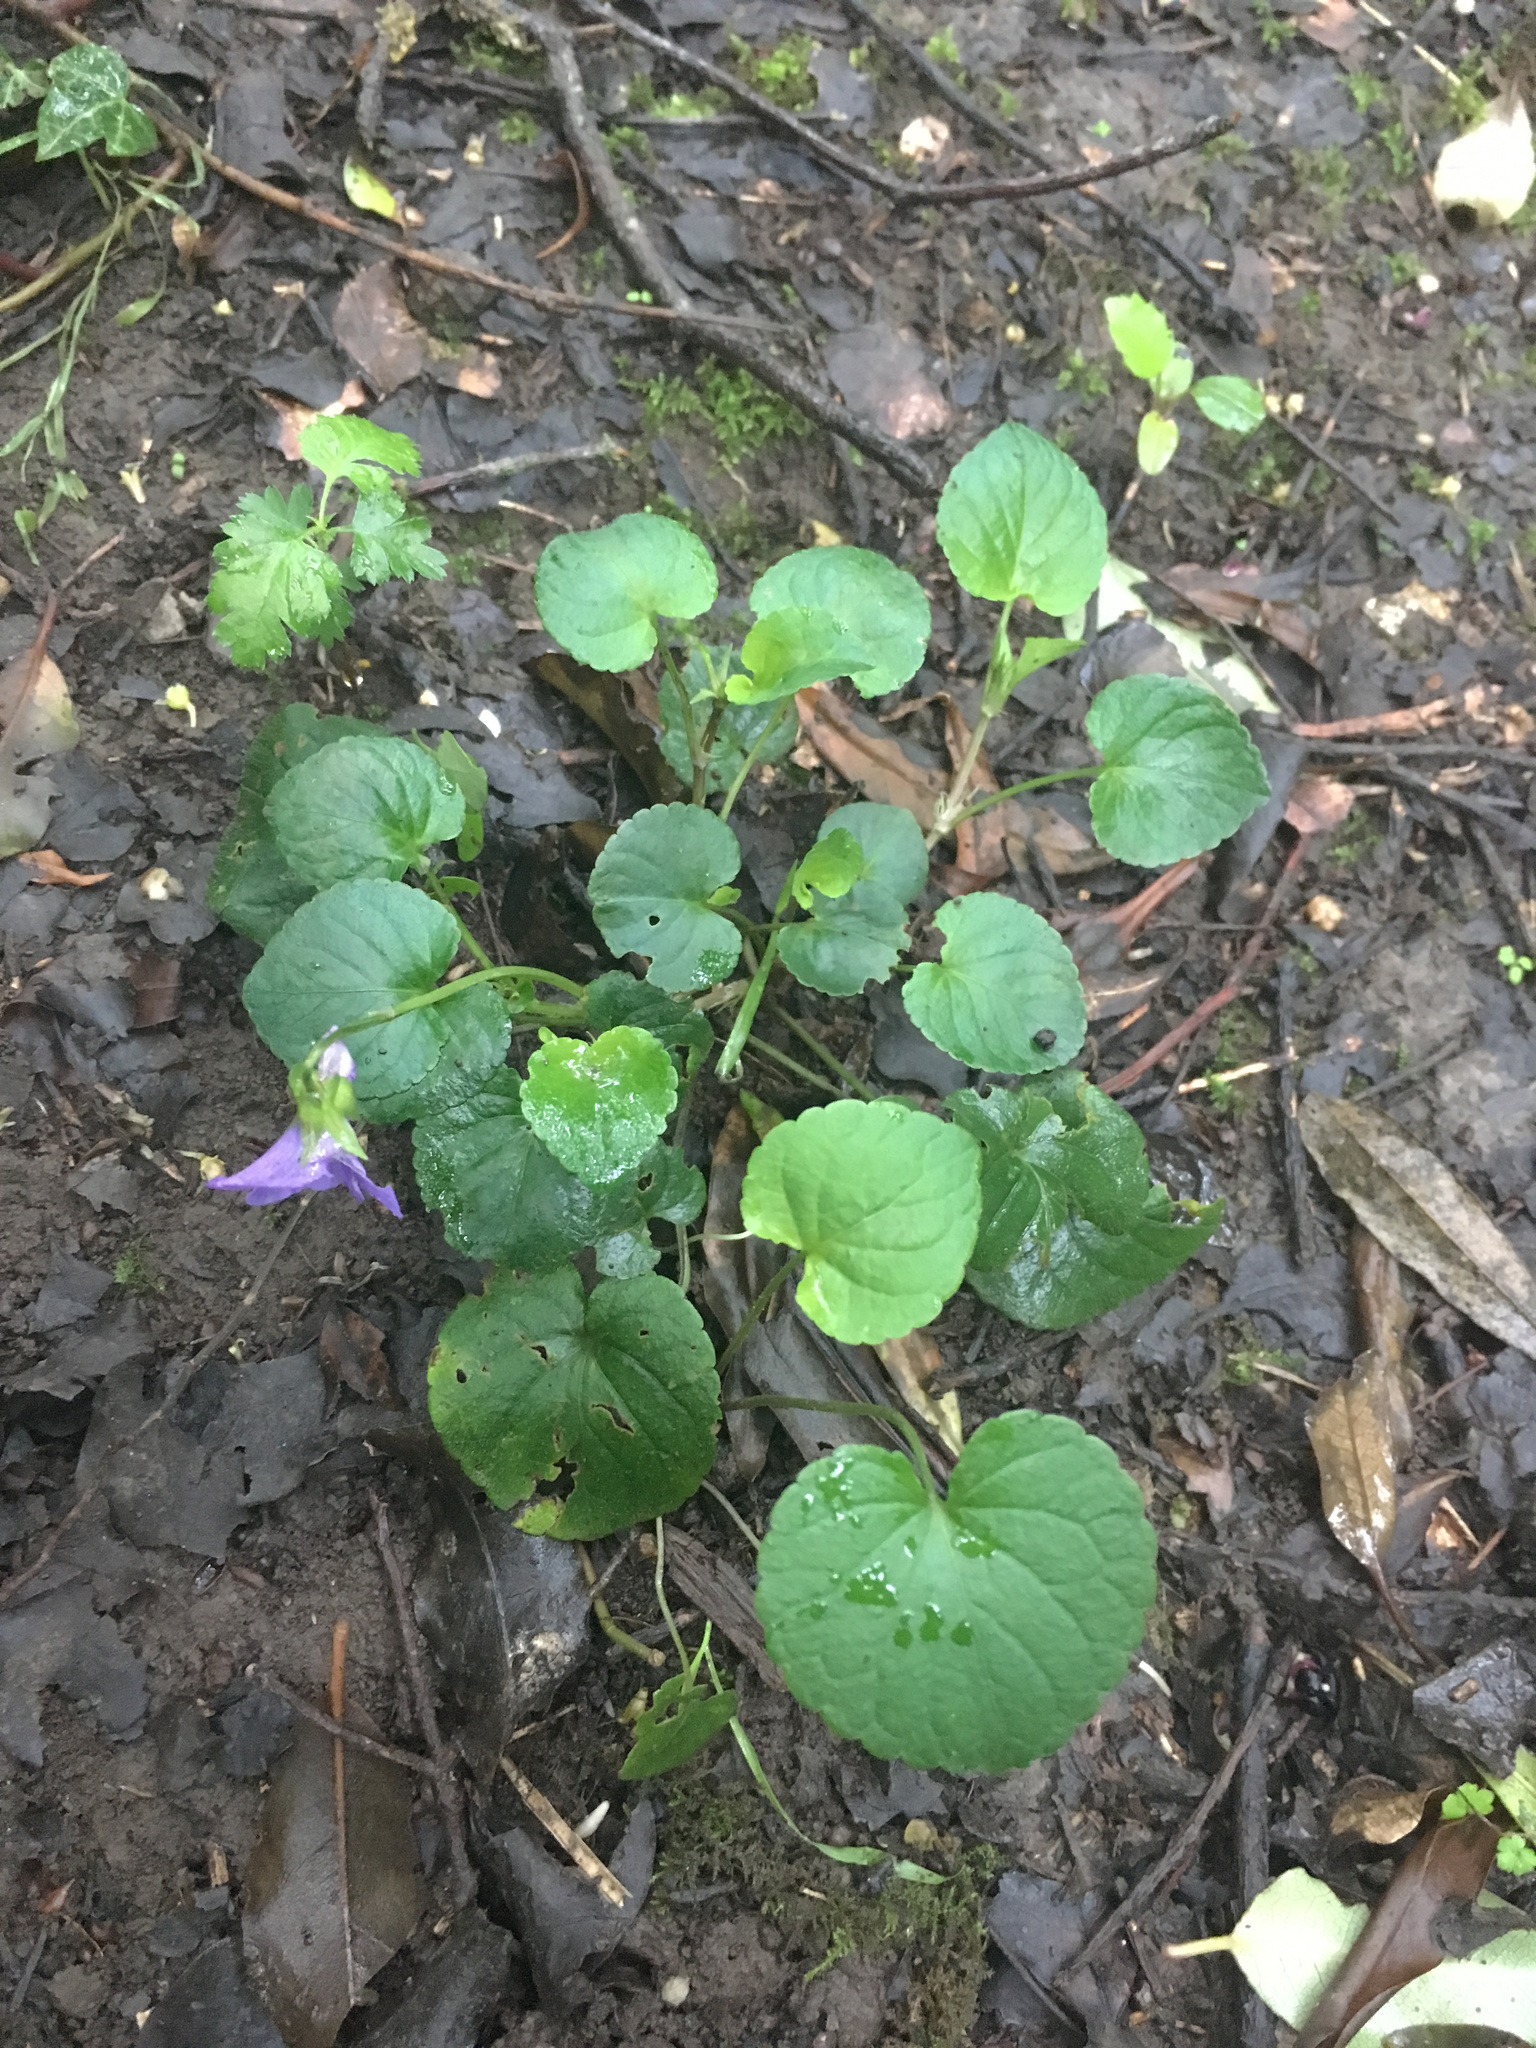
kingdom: Plantae
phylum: Tracheophyta
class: Magnoliopsida
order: Malpighiales
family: Violaceae
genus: Viola
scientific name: Viola odorata
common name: Sweet violet
